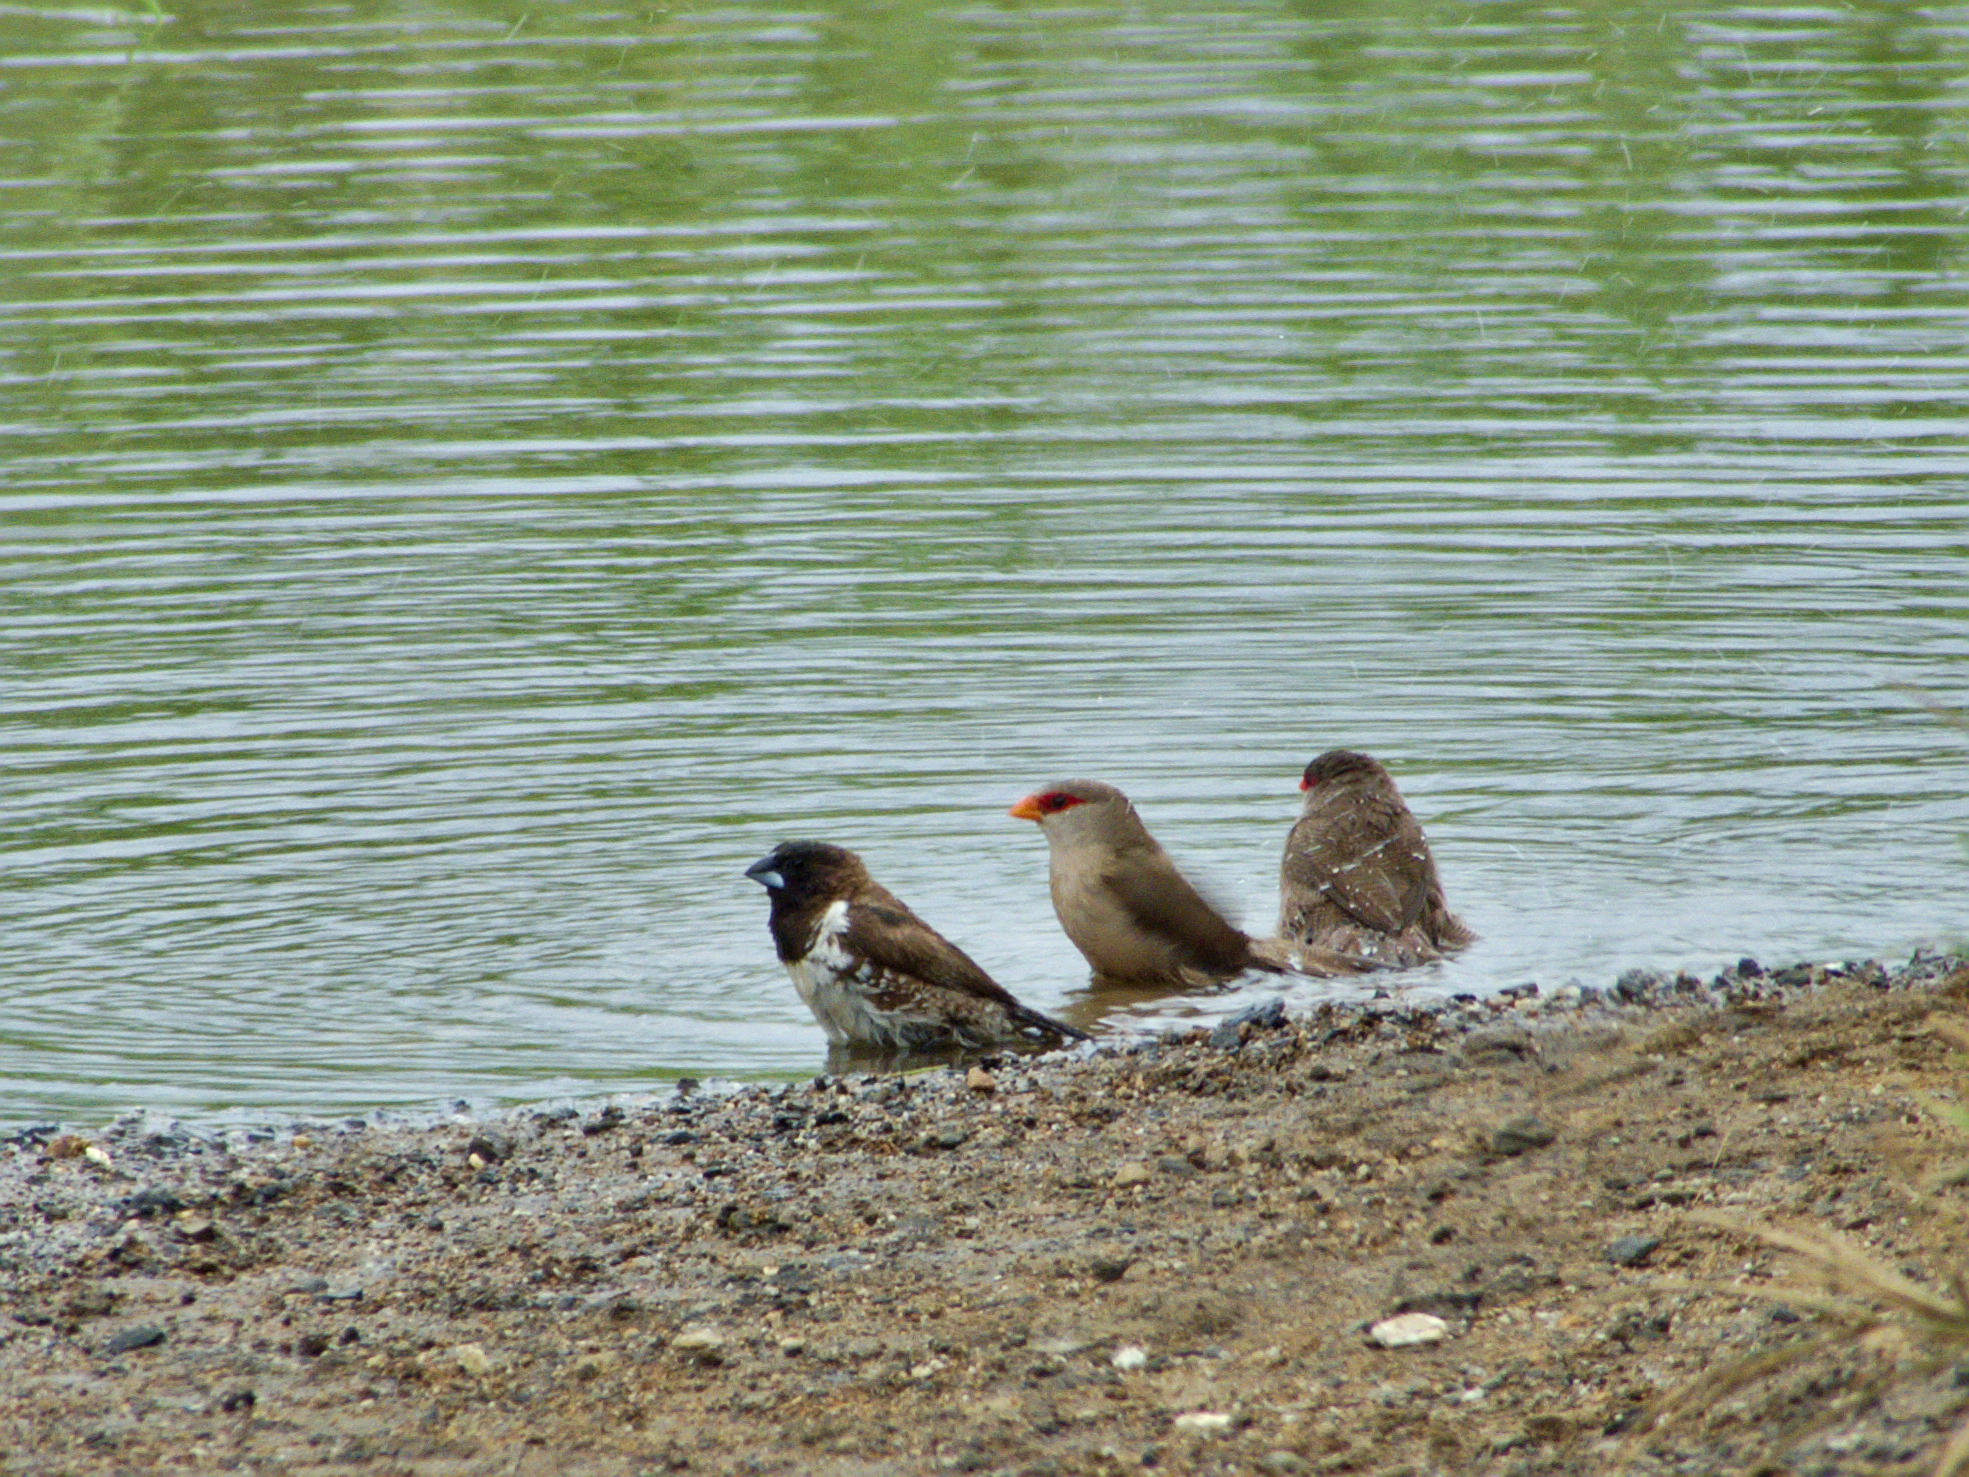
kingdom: Animalia
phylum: Chordata
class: Aves
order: Passeriformes
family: Estrildidae
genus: Estrilda
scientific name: Estrilda astrild
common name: Common waxbill
